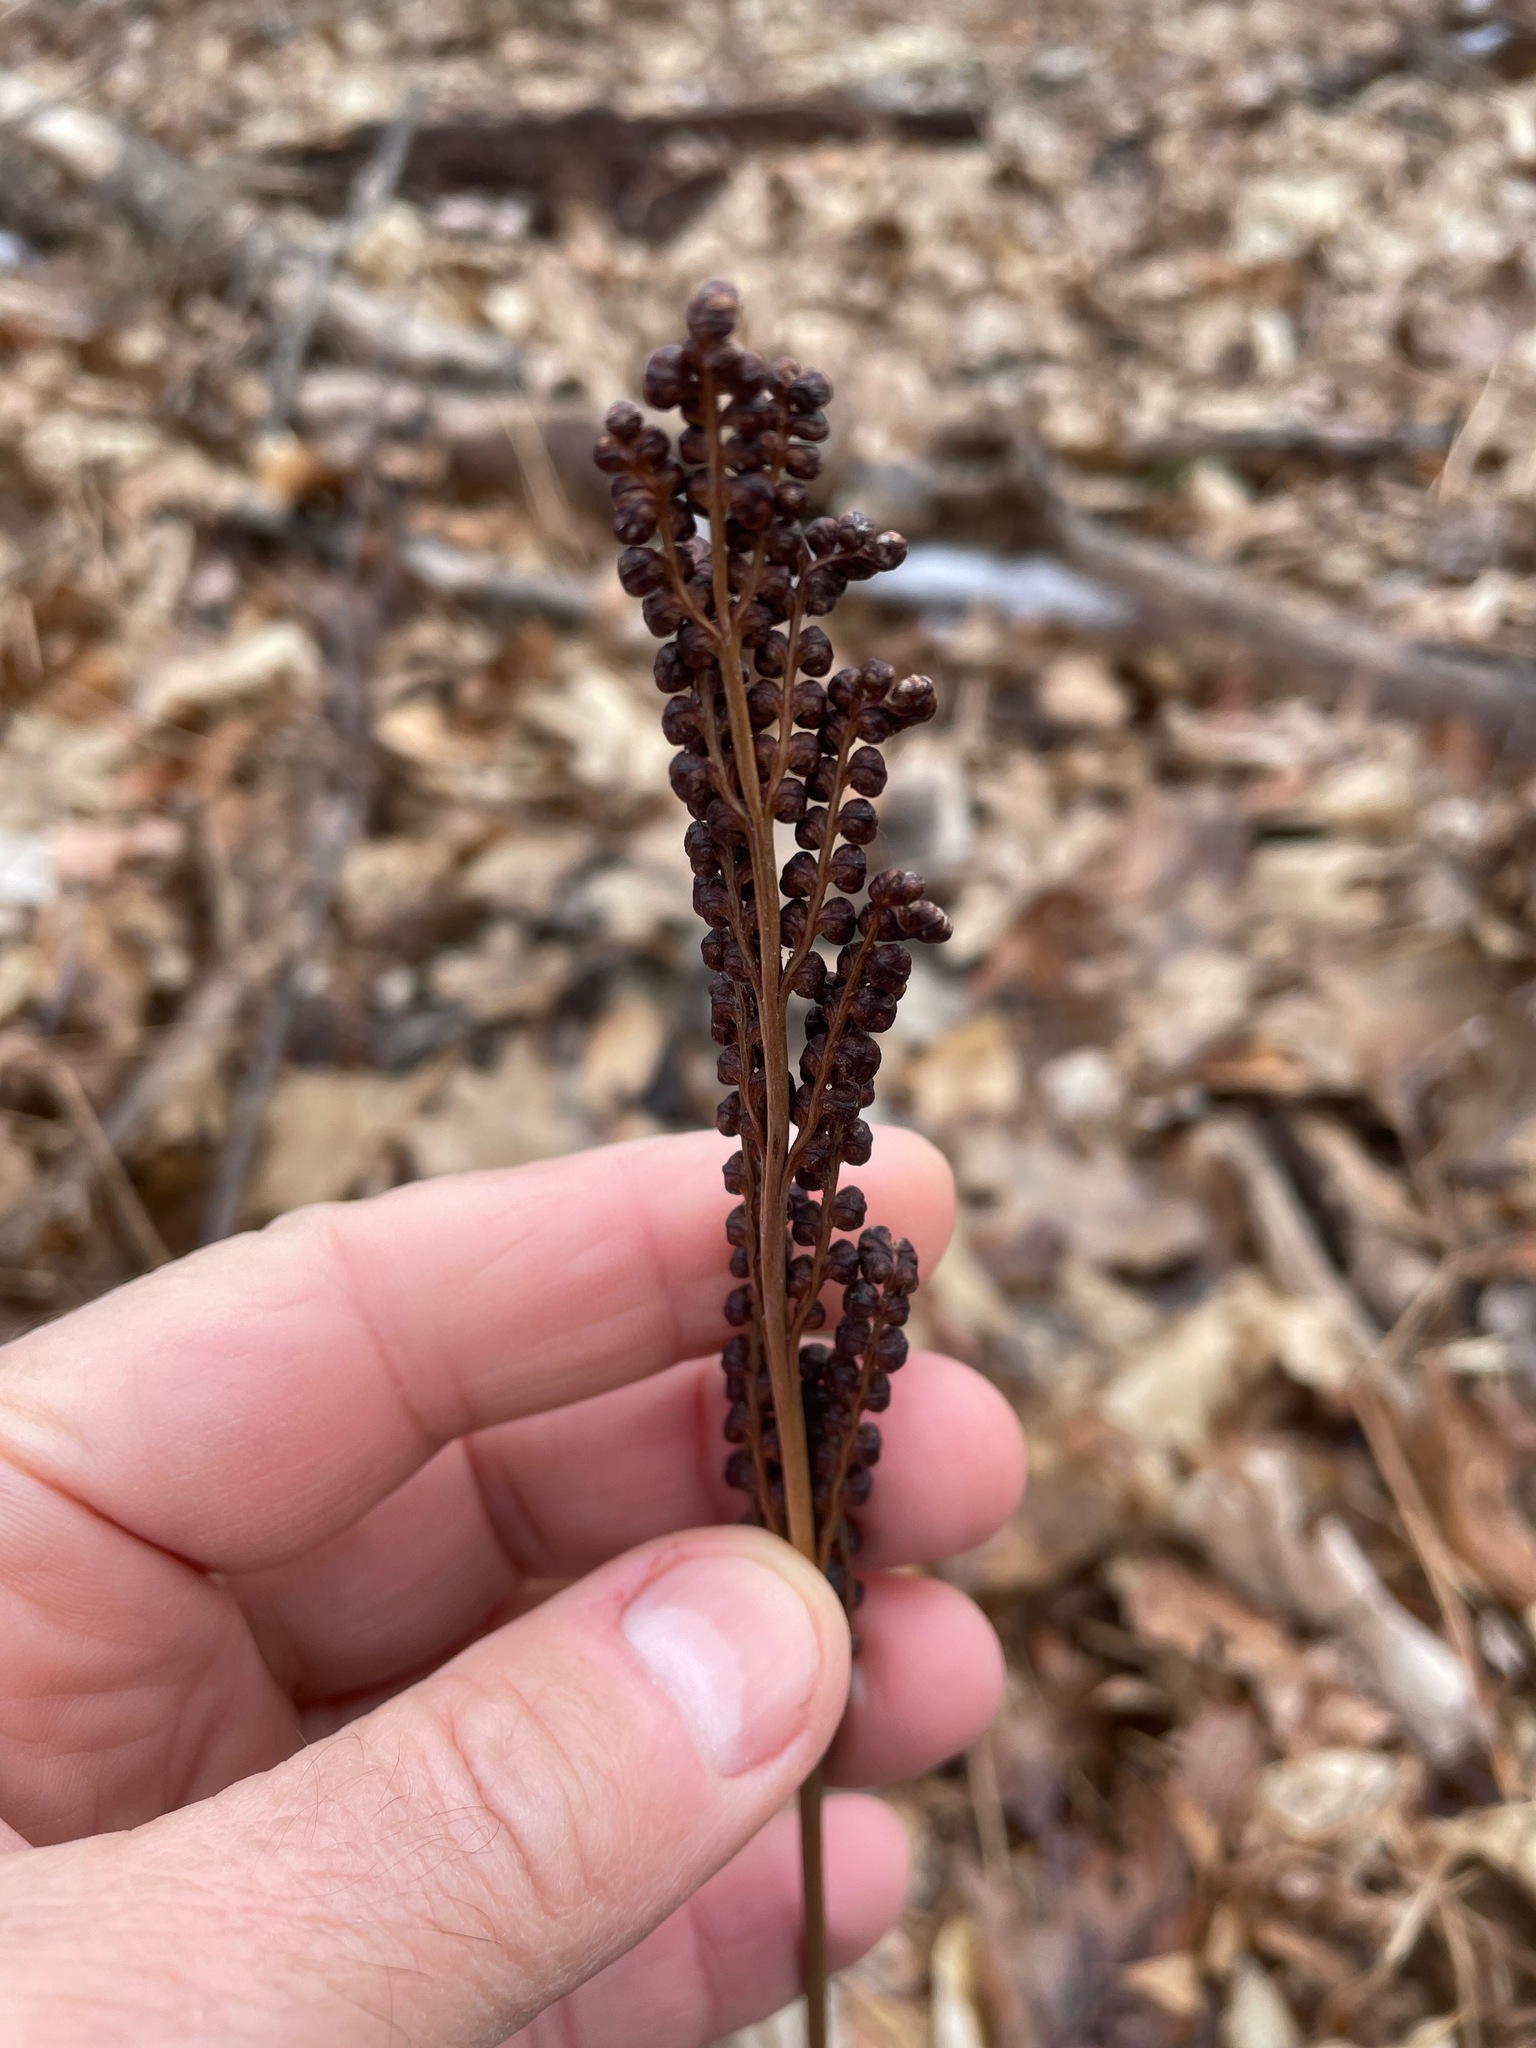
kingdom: Plantae
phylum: Tracheophyta
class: Polypodiopsida
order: Polypodiales
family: Onocleaceae
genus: Onoclea
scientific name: Onoclea sensibilis
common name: Sensitive fern
